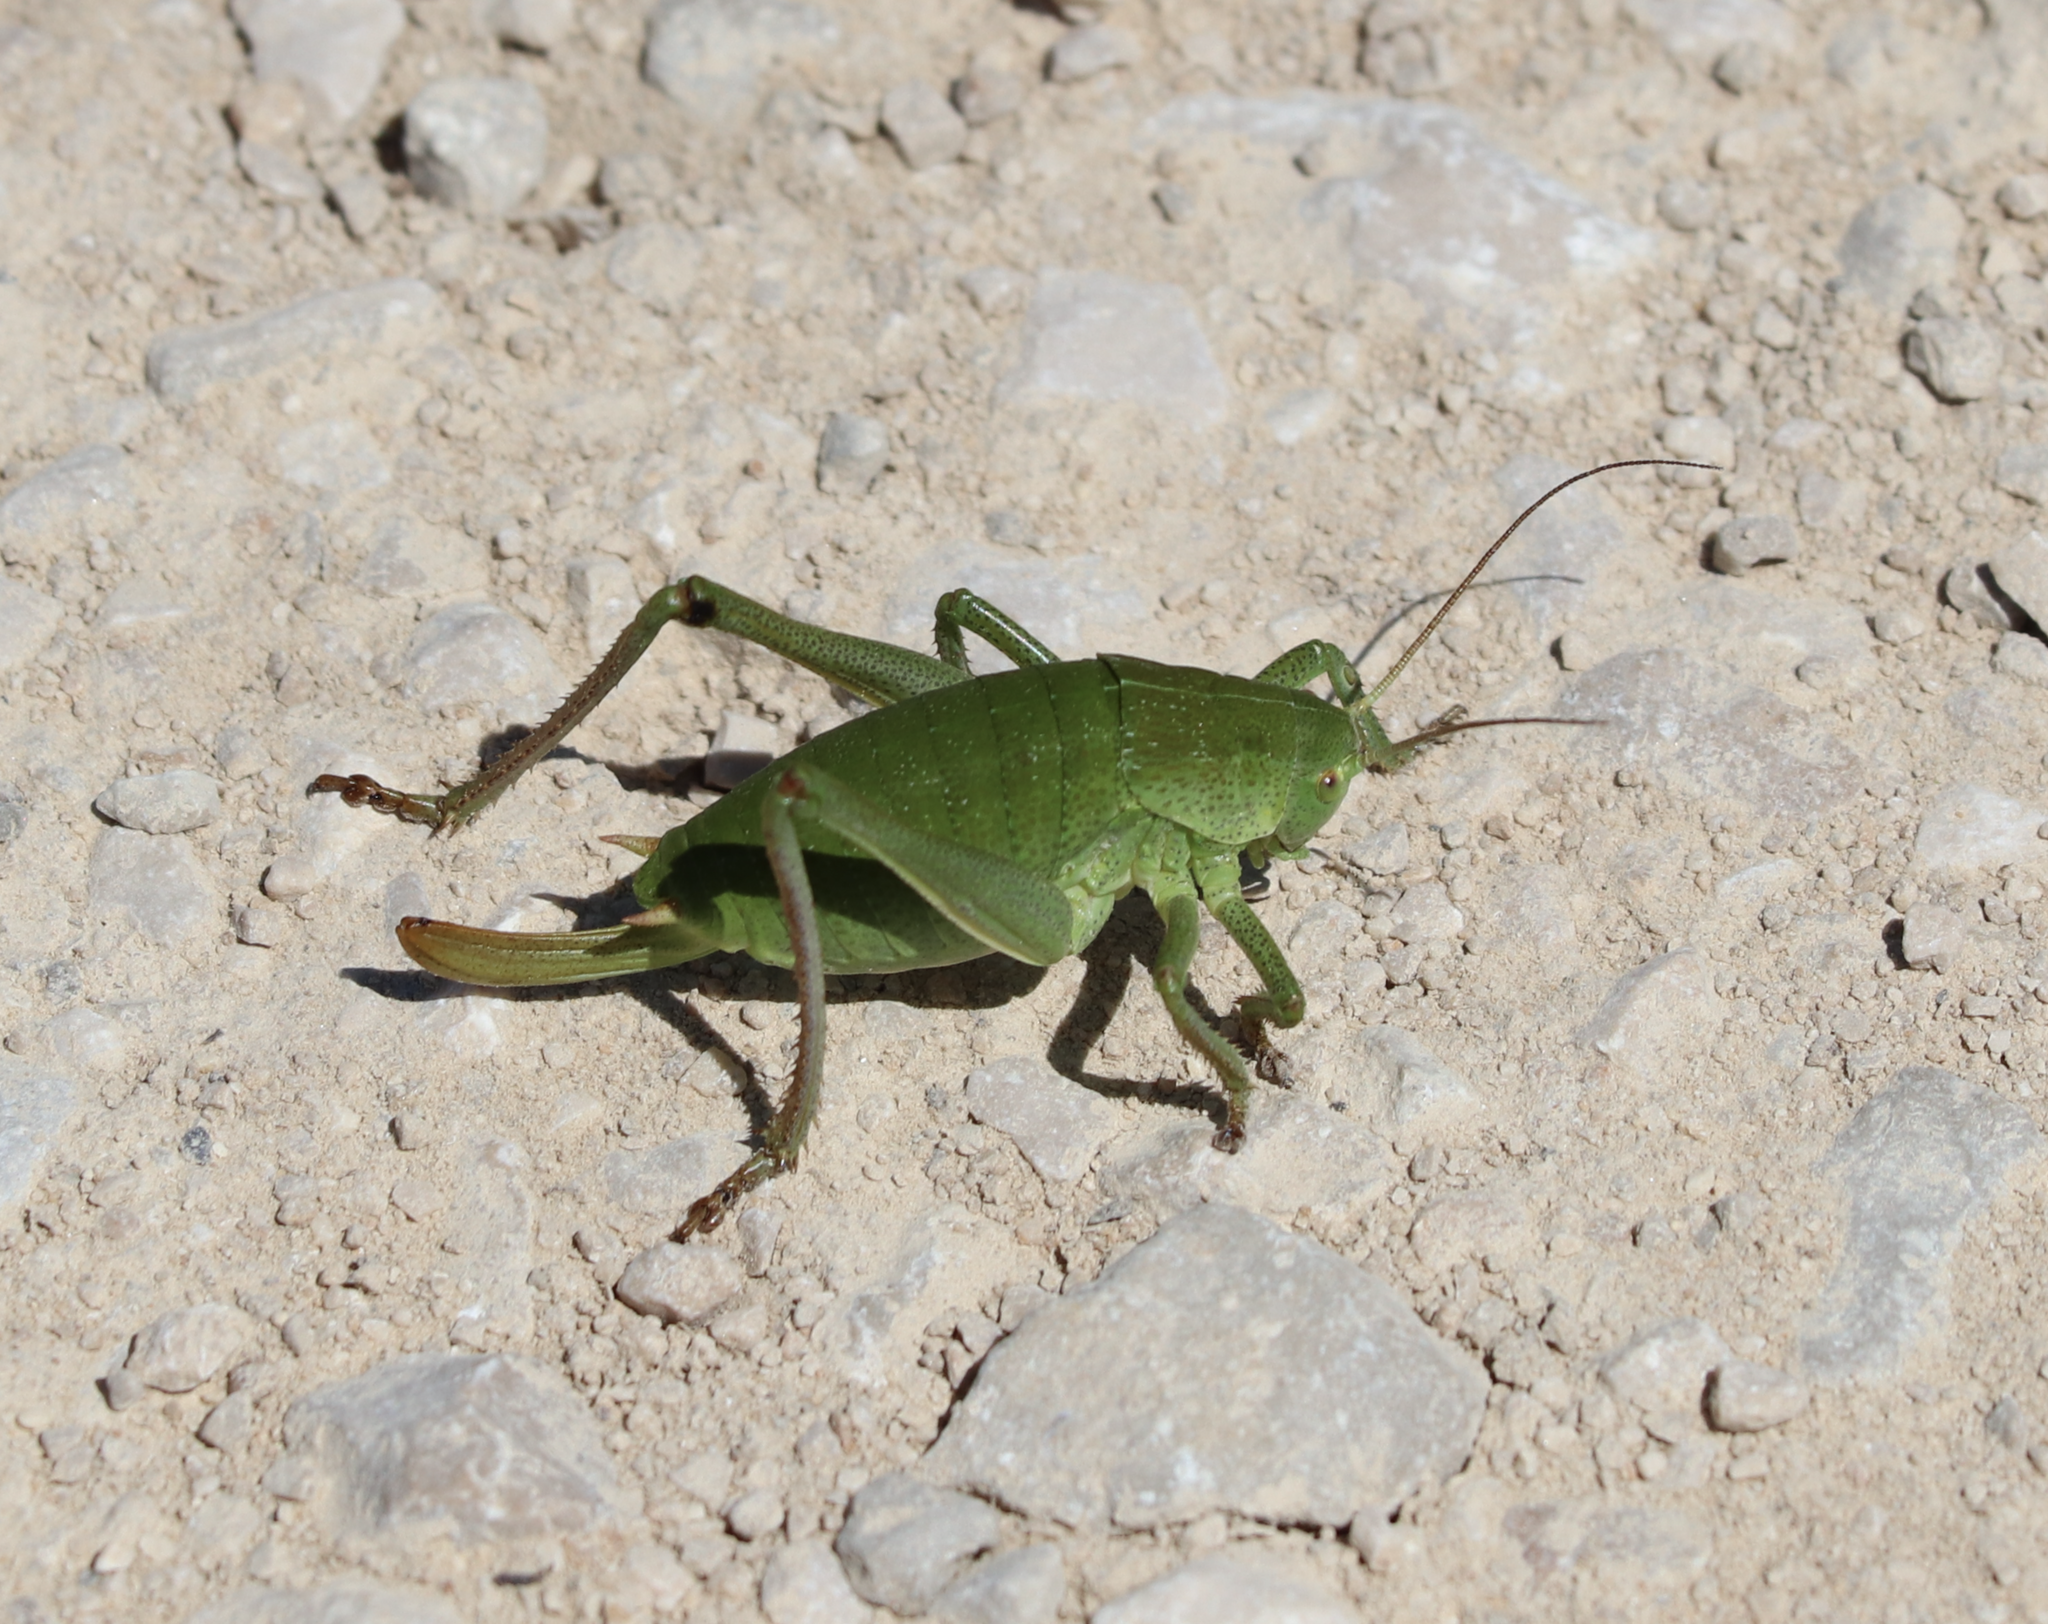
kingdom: Animalia
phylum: Arthropoda
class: Insecta
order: Orthoptera
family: Tettigoniidae
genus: Polysarcus
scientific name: Polysarcus denticauda
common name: Large saw-tailed bush-cricket
